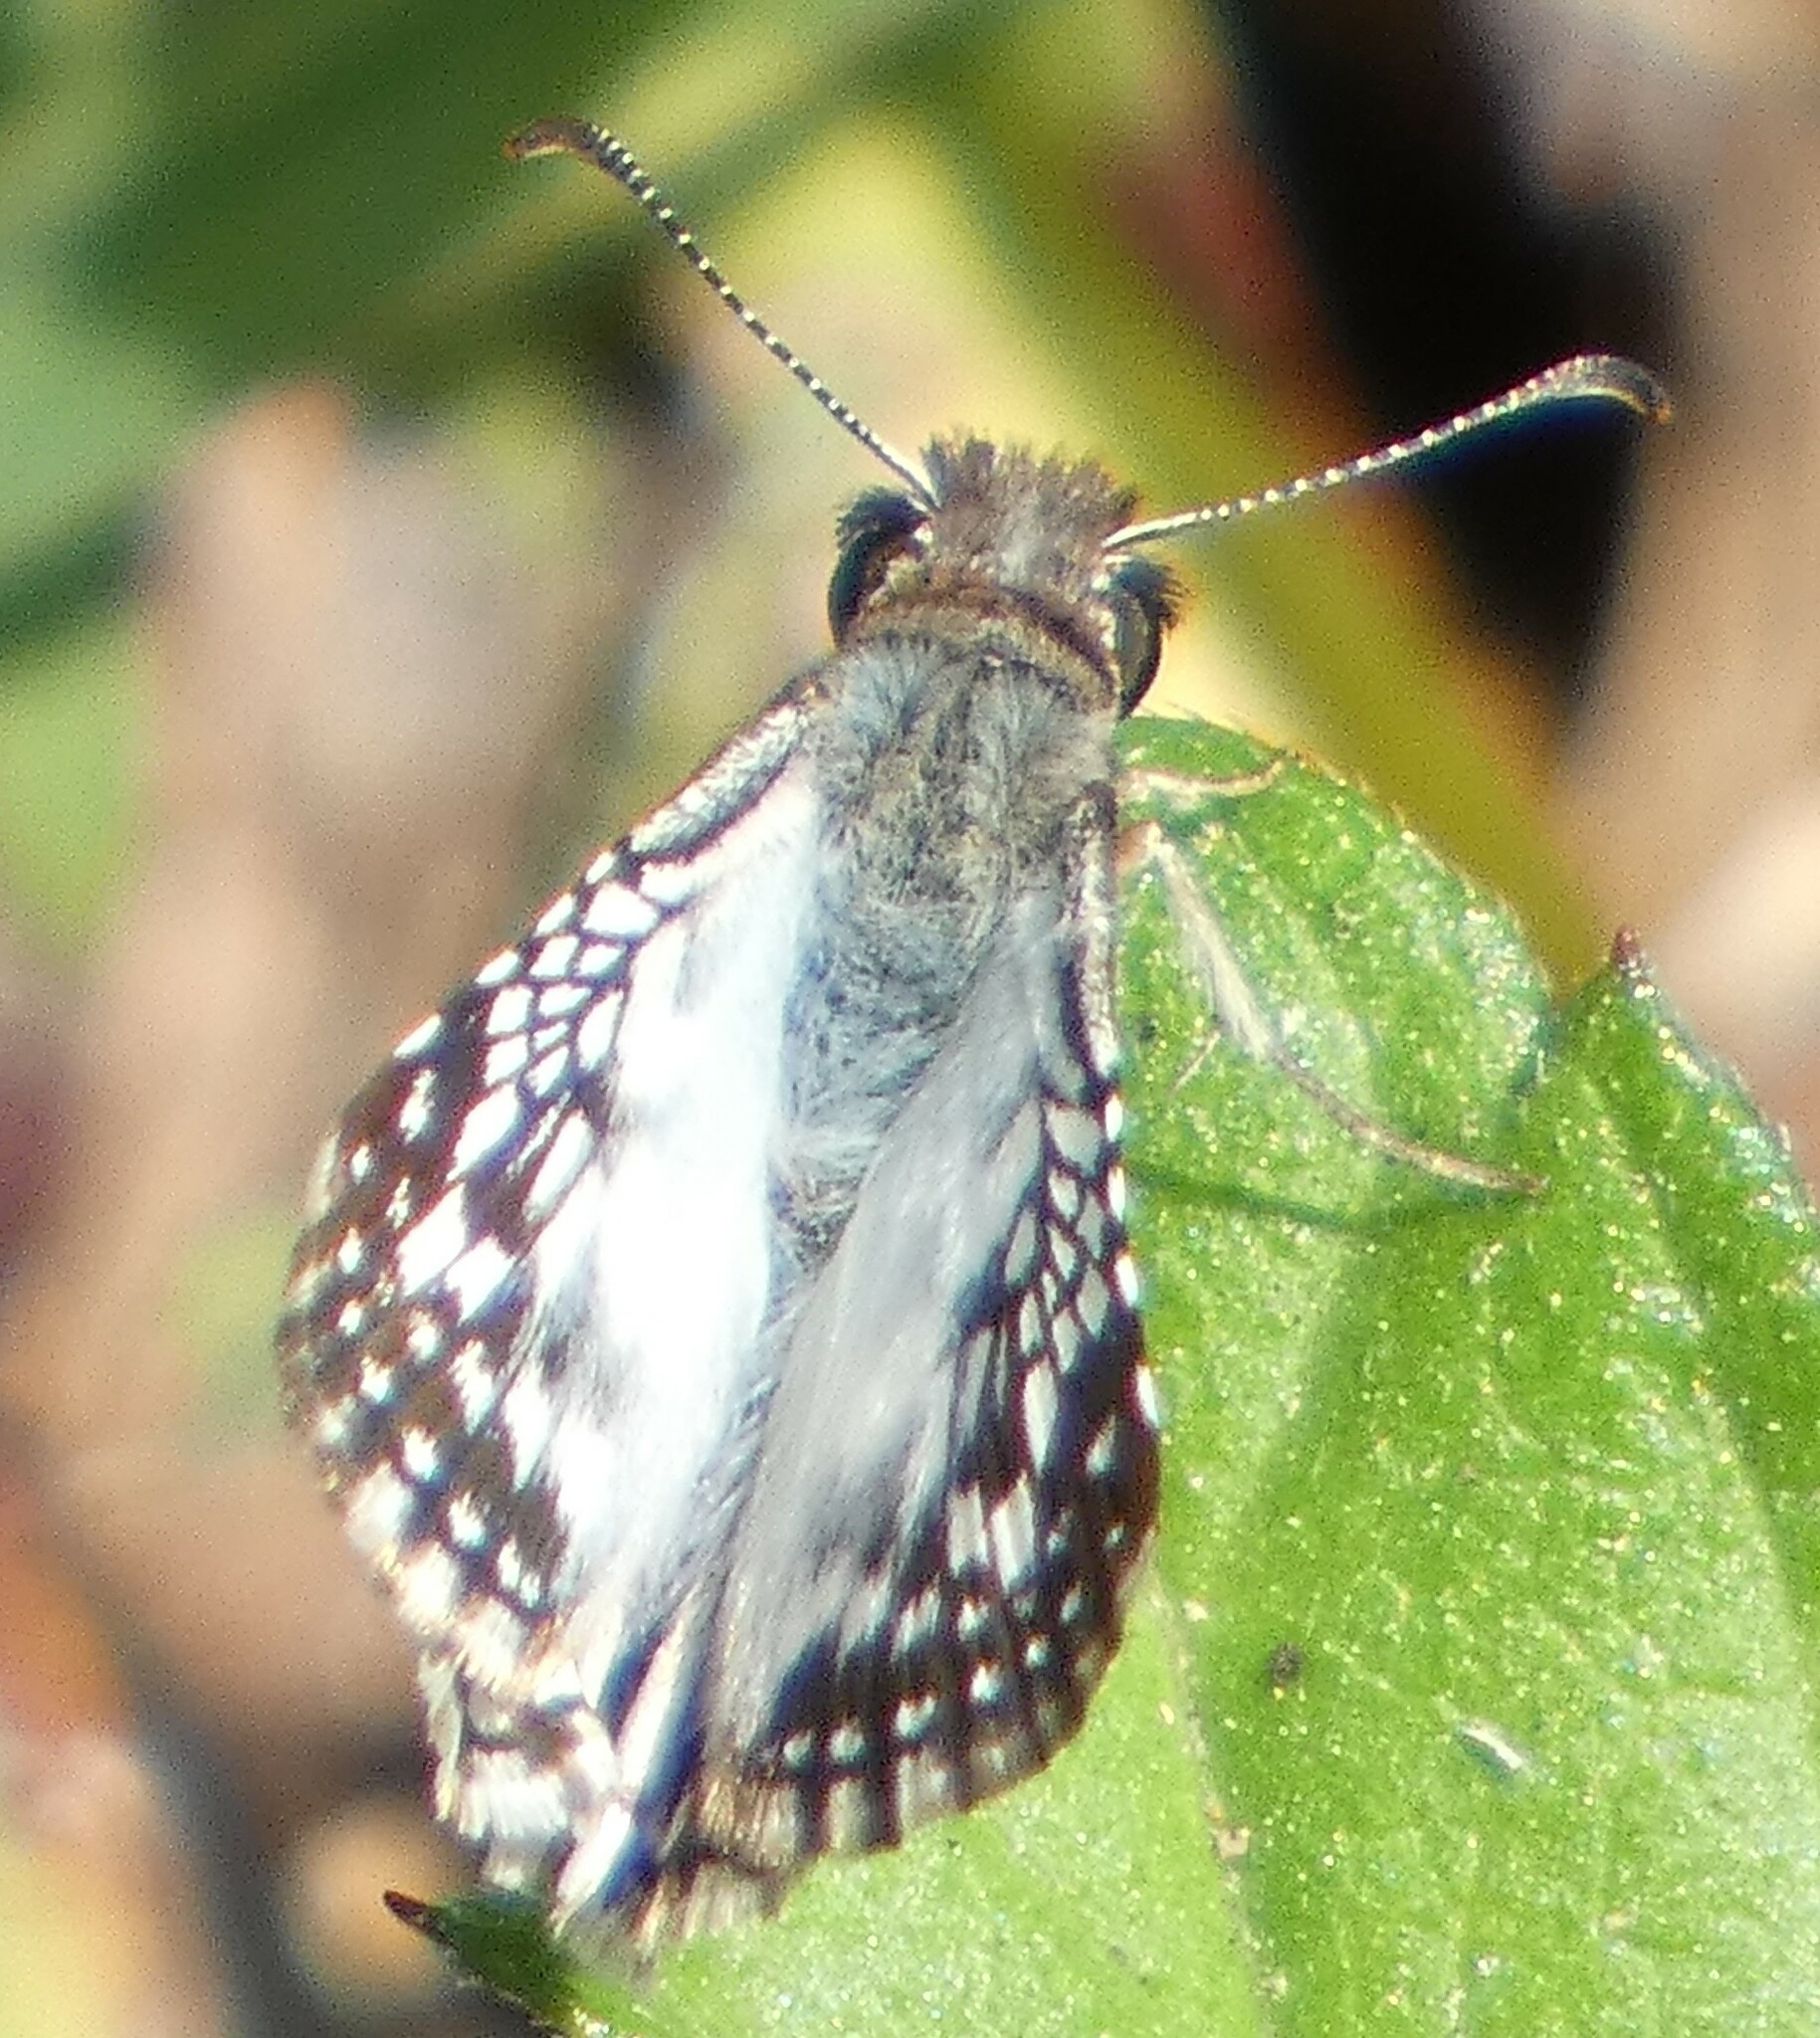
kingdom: Animalia
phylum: Arthropoda
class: Insecta
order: Lepidoptera
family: Hesperiidae
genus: Pyrgus
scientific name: Pyrgus oileus
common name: Tropical checkered-skipper
